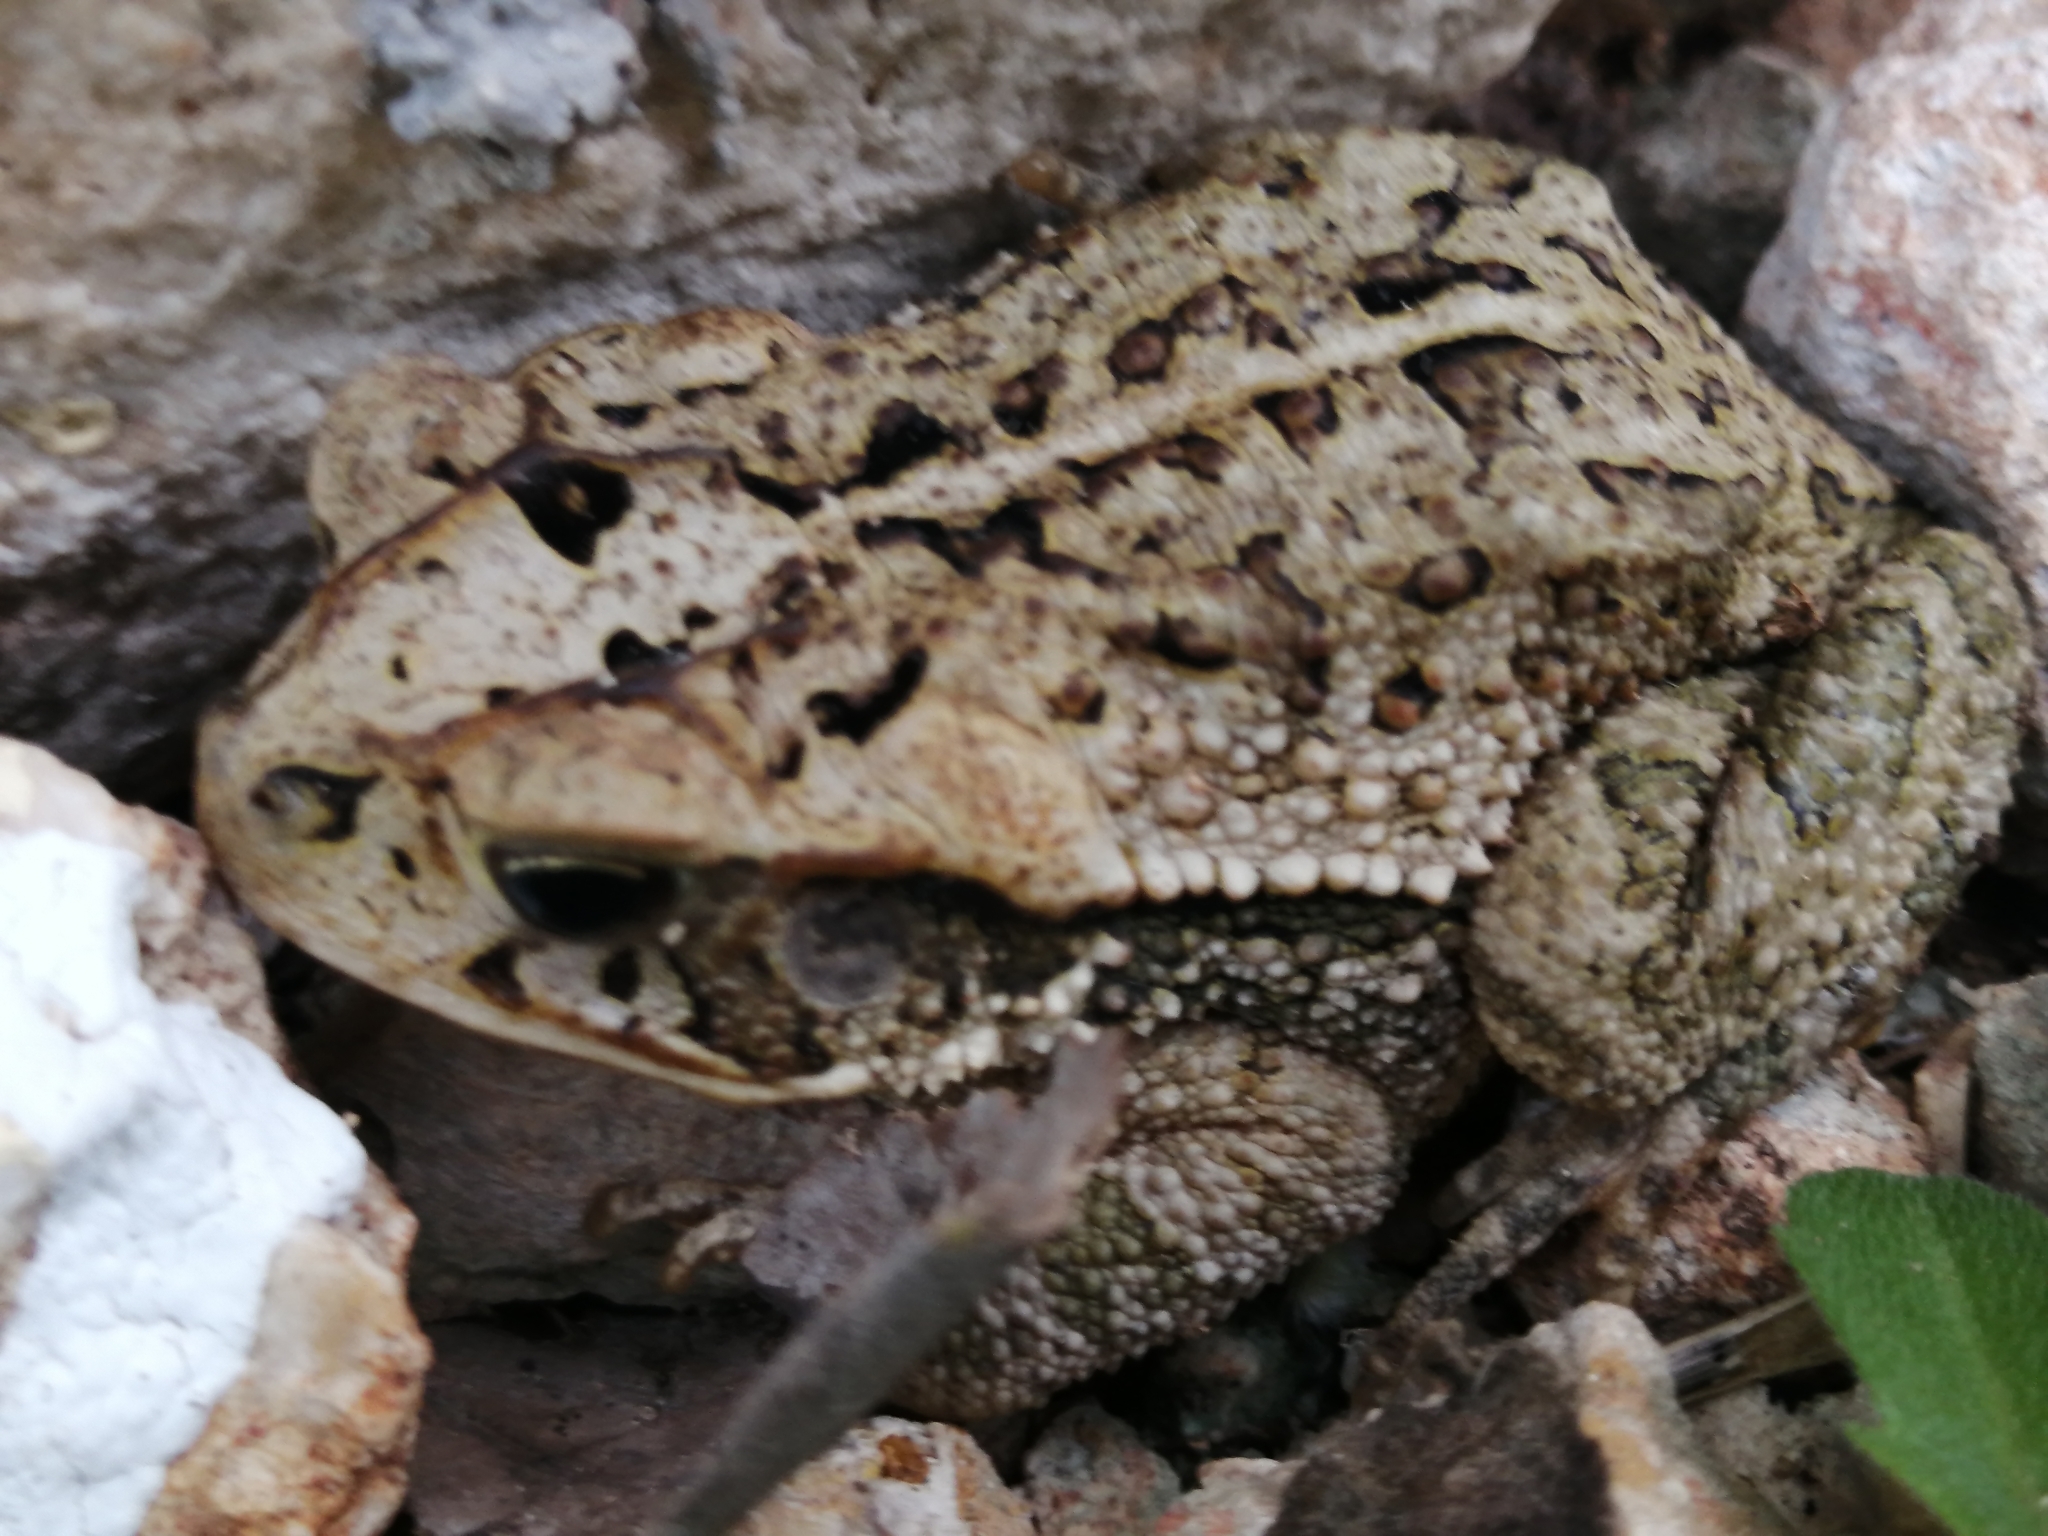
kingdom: Animalia
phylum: Chordata
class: Amphibia
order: Anura
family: Bufonidae
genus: Incilius
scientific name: Incilius valliceps
